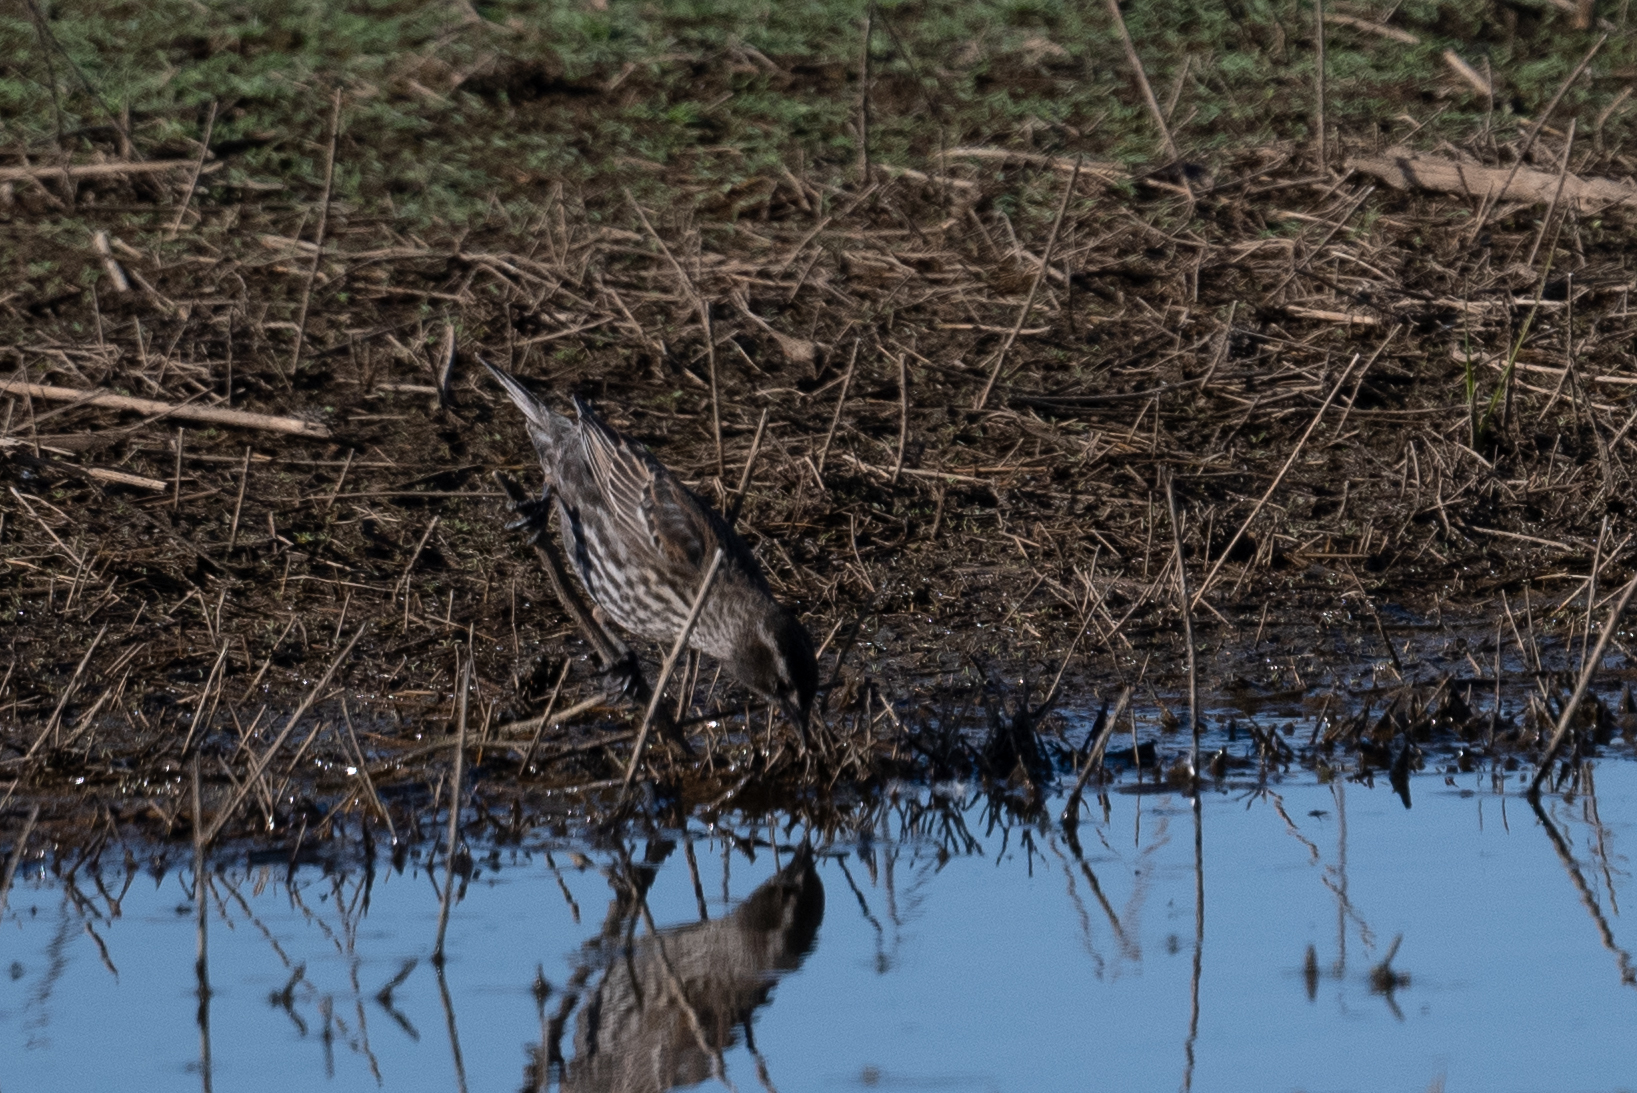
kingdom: Animalia
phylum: Chordata
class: Aves
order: Passeriformes
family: Icteridae
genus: Agelaius
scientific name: Agelaius phoeniceus
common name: Red-winged blackbird
